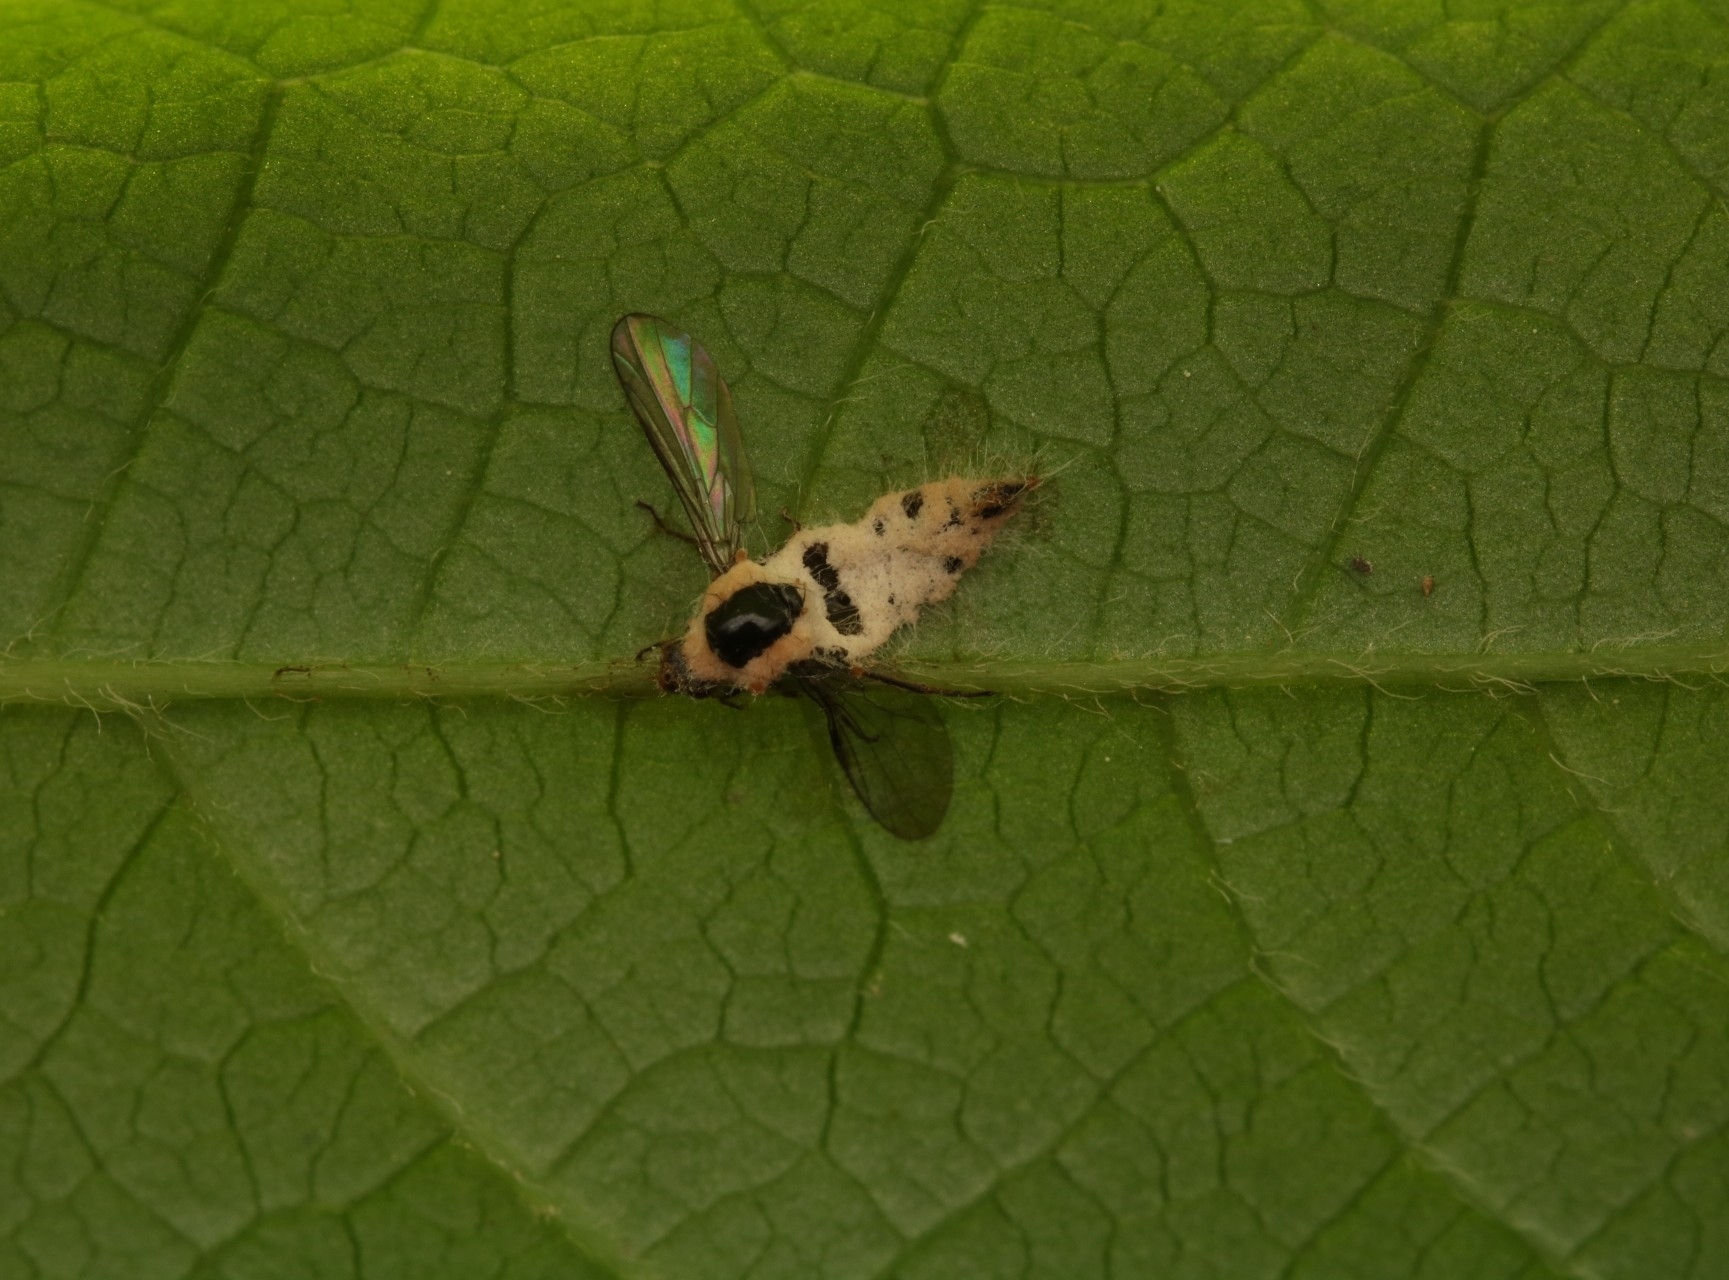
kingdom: Fungi
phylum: Entomophthoromycota
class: Entomophthoromycetes
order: Entomophthorales
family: Entomophthoraceae
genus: Furia
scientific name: Furia ithacensis
